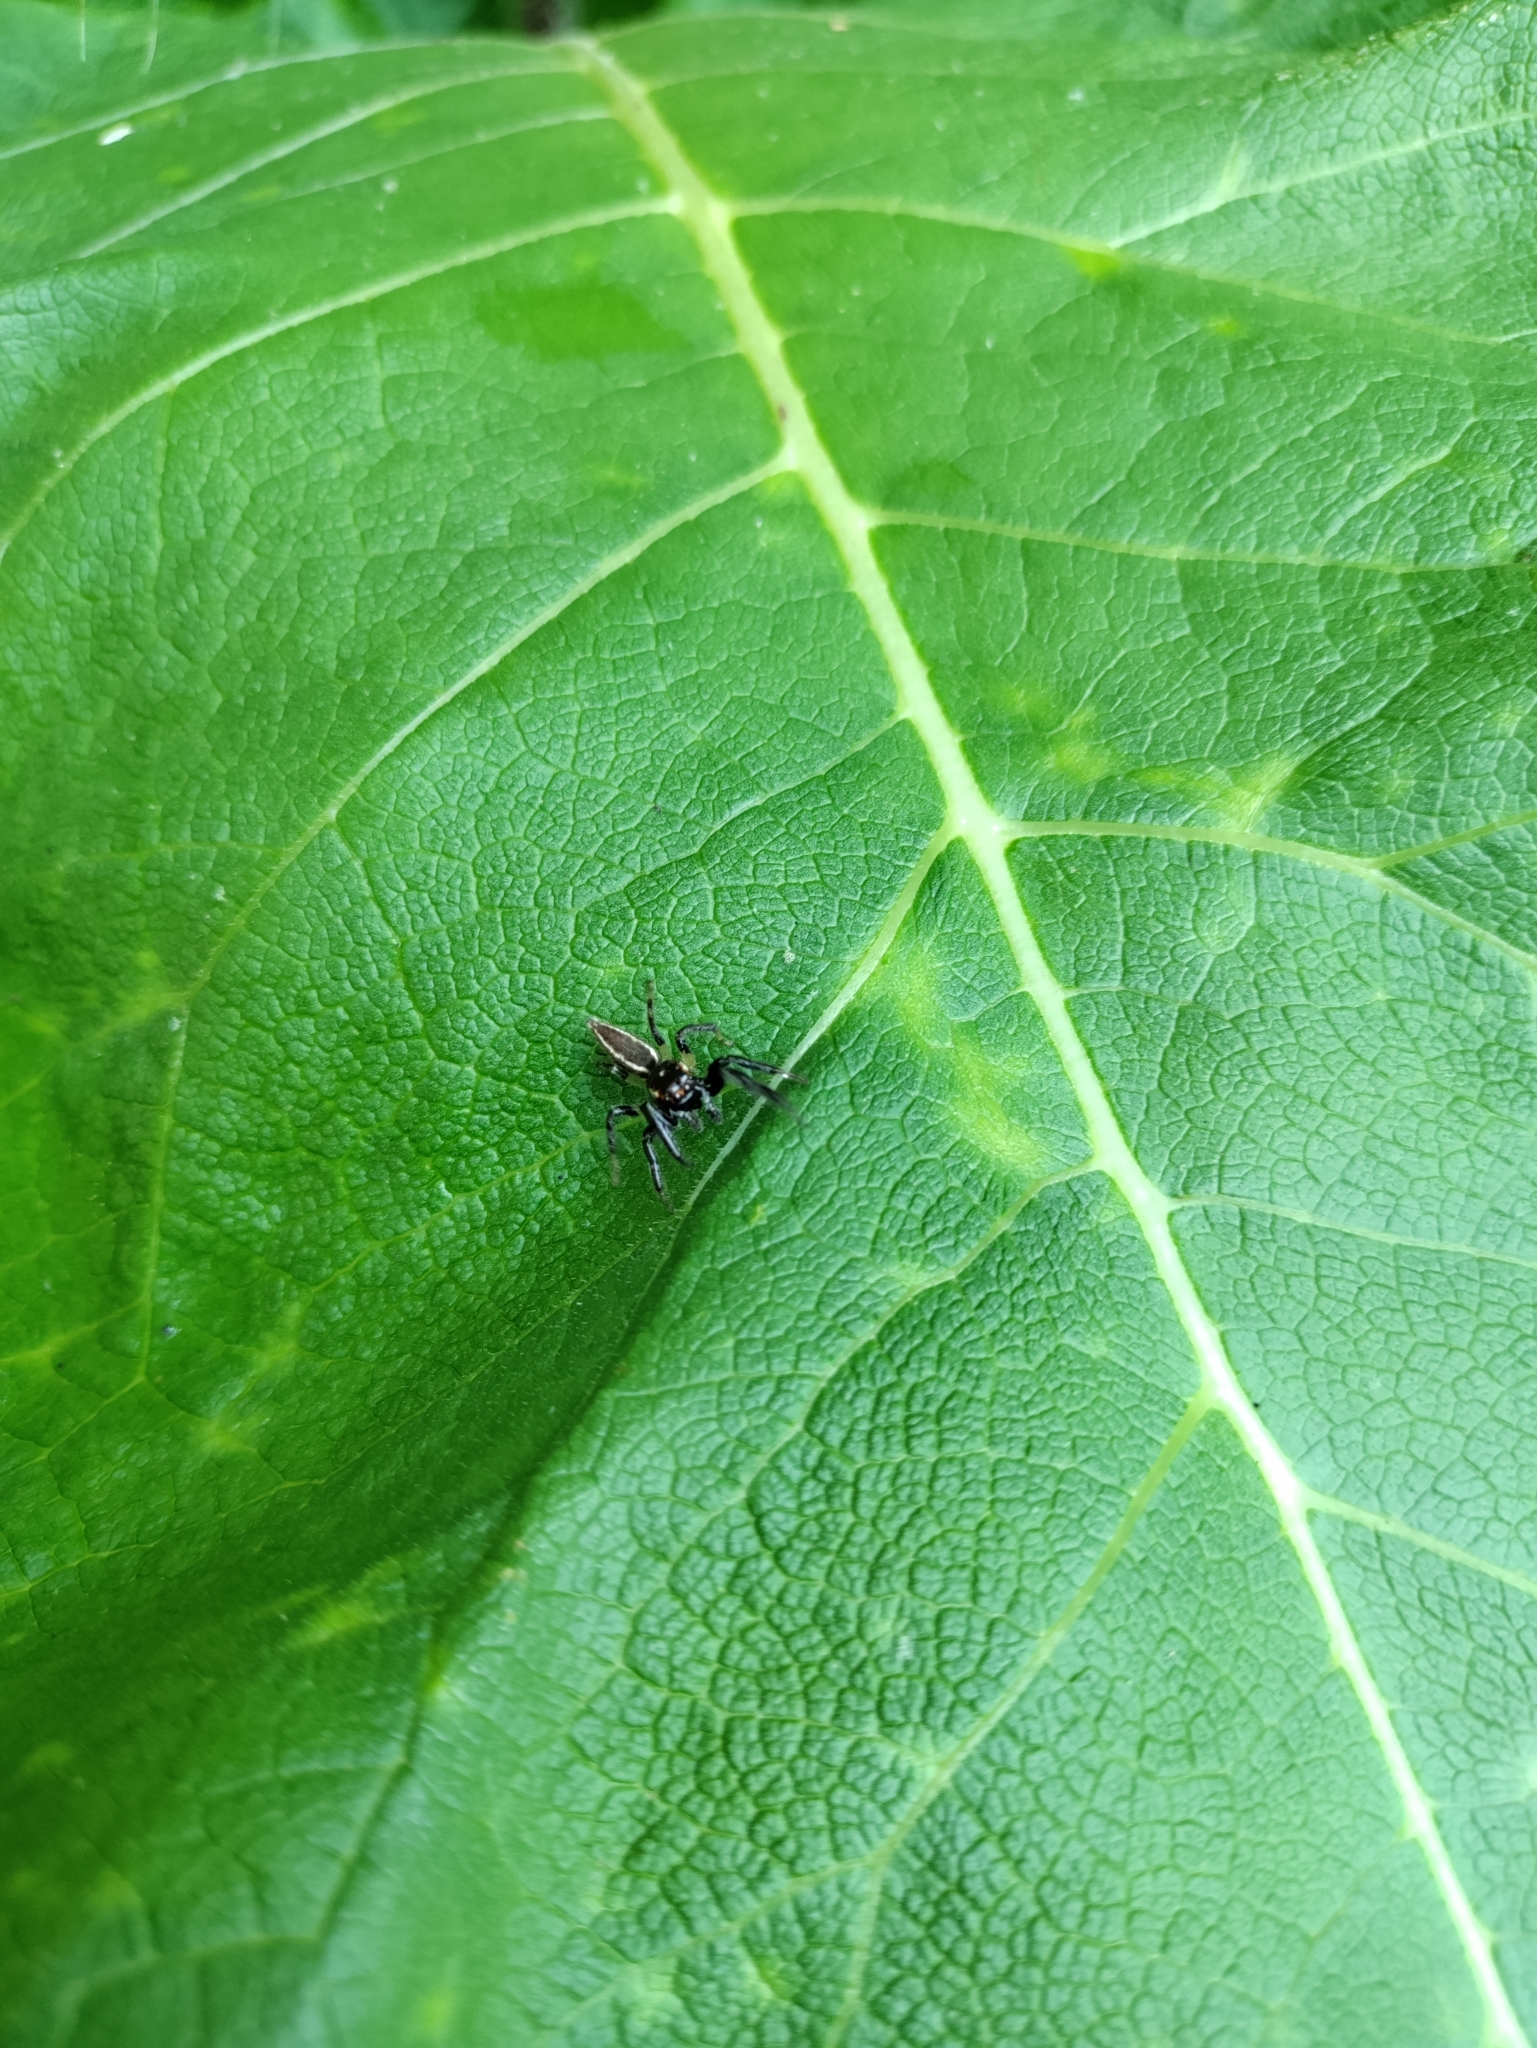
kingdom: Animalia
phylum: Arthropoda
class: Arachnida
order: Araneae
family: Salticidae
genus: Colonus
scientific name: Colonus sylvanus
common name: Jumping spiders
